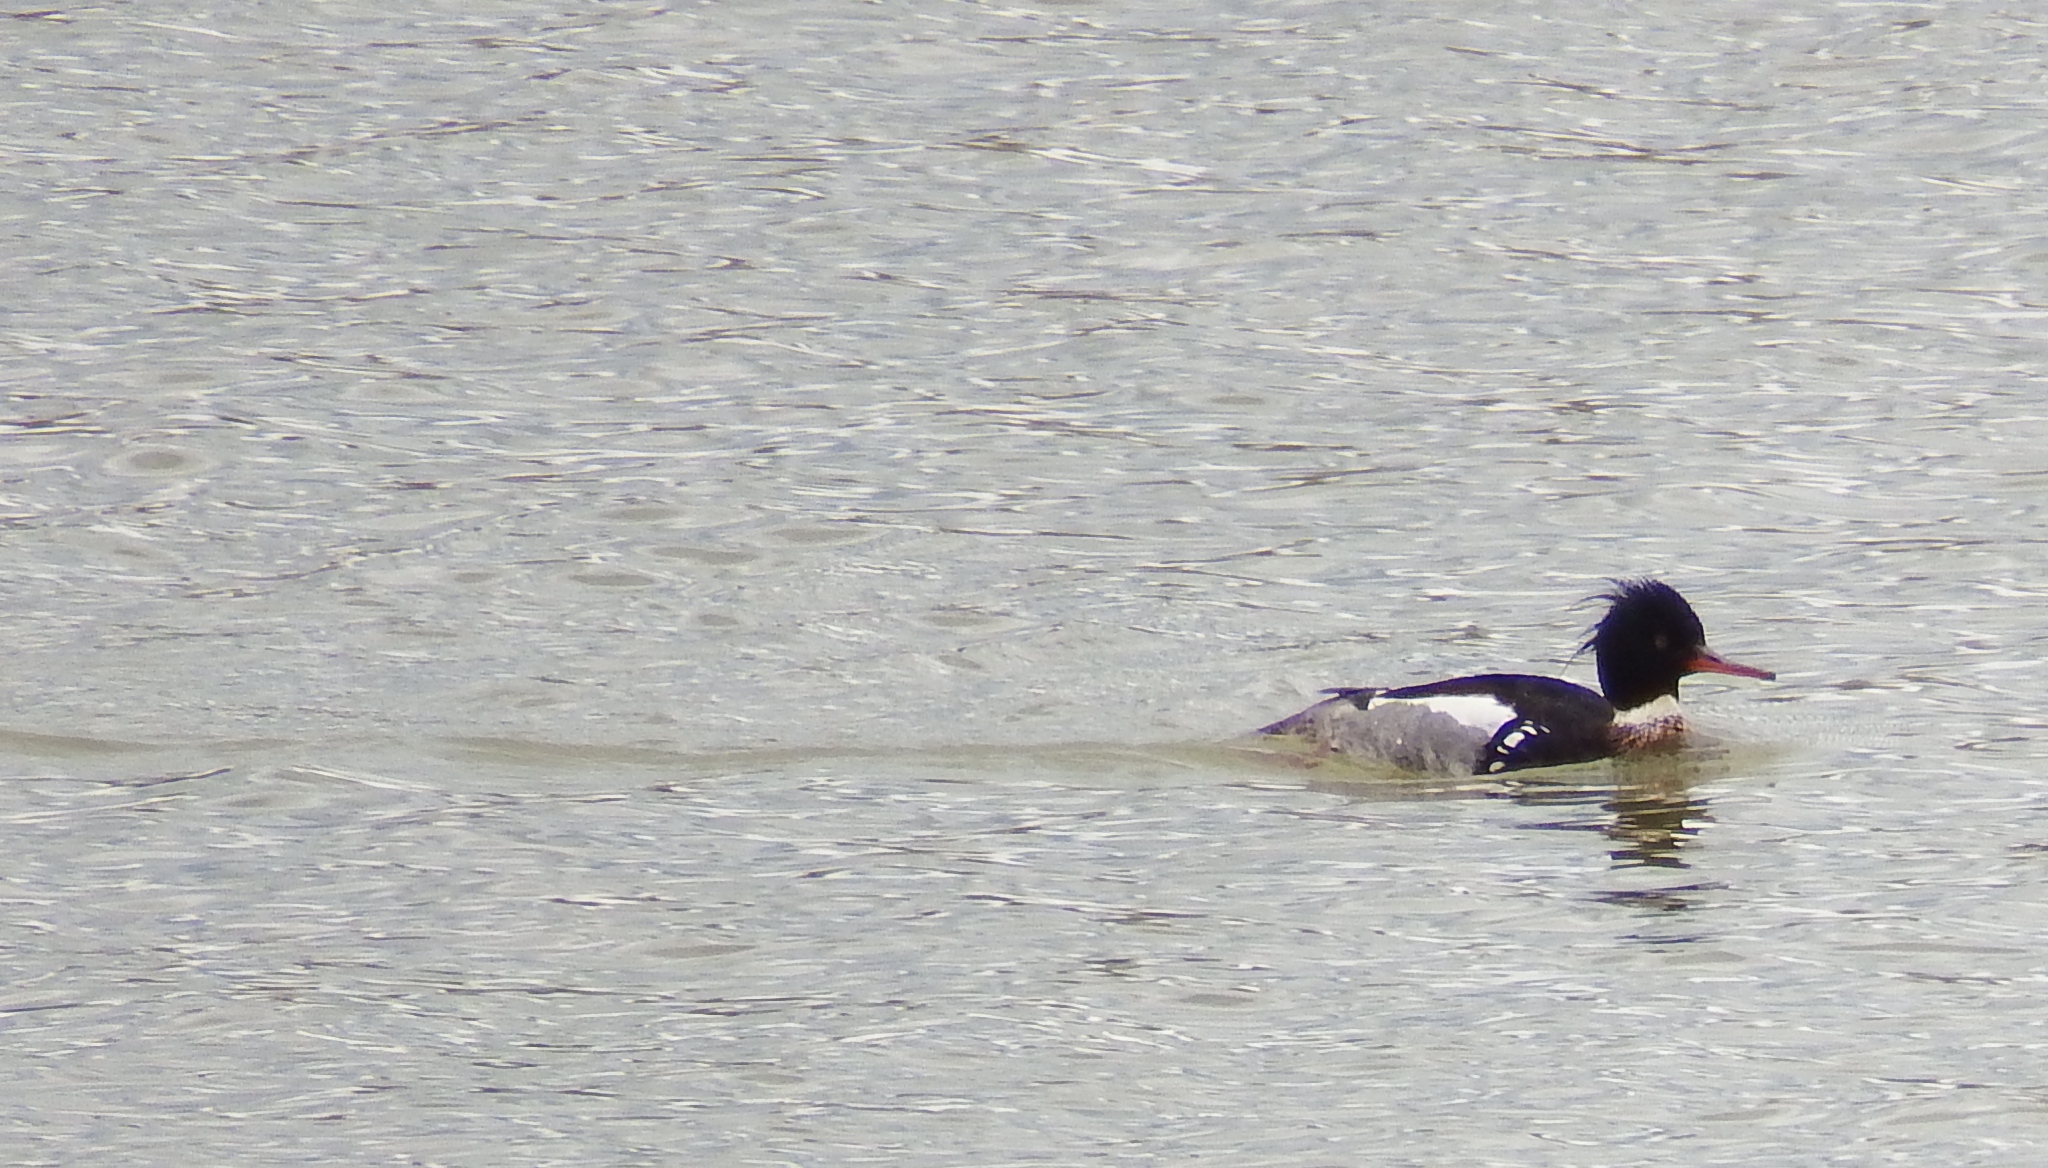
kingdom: Animalia
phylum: Chordata
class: Aves
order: Anseriformes
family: Anatidae
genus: Mergus
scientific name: Mergus serrator
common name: Red-breasted merganser
